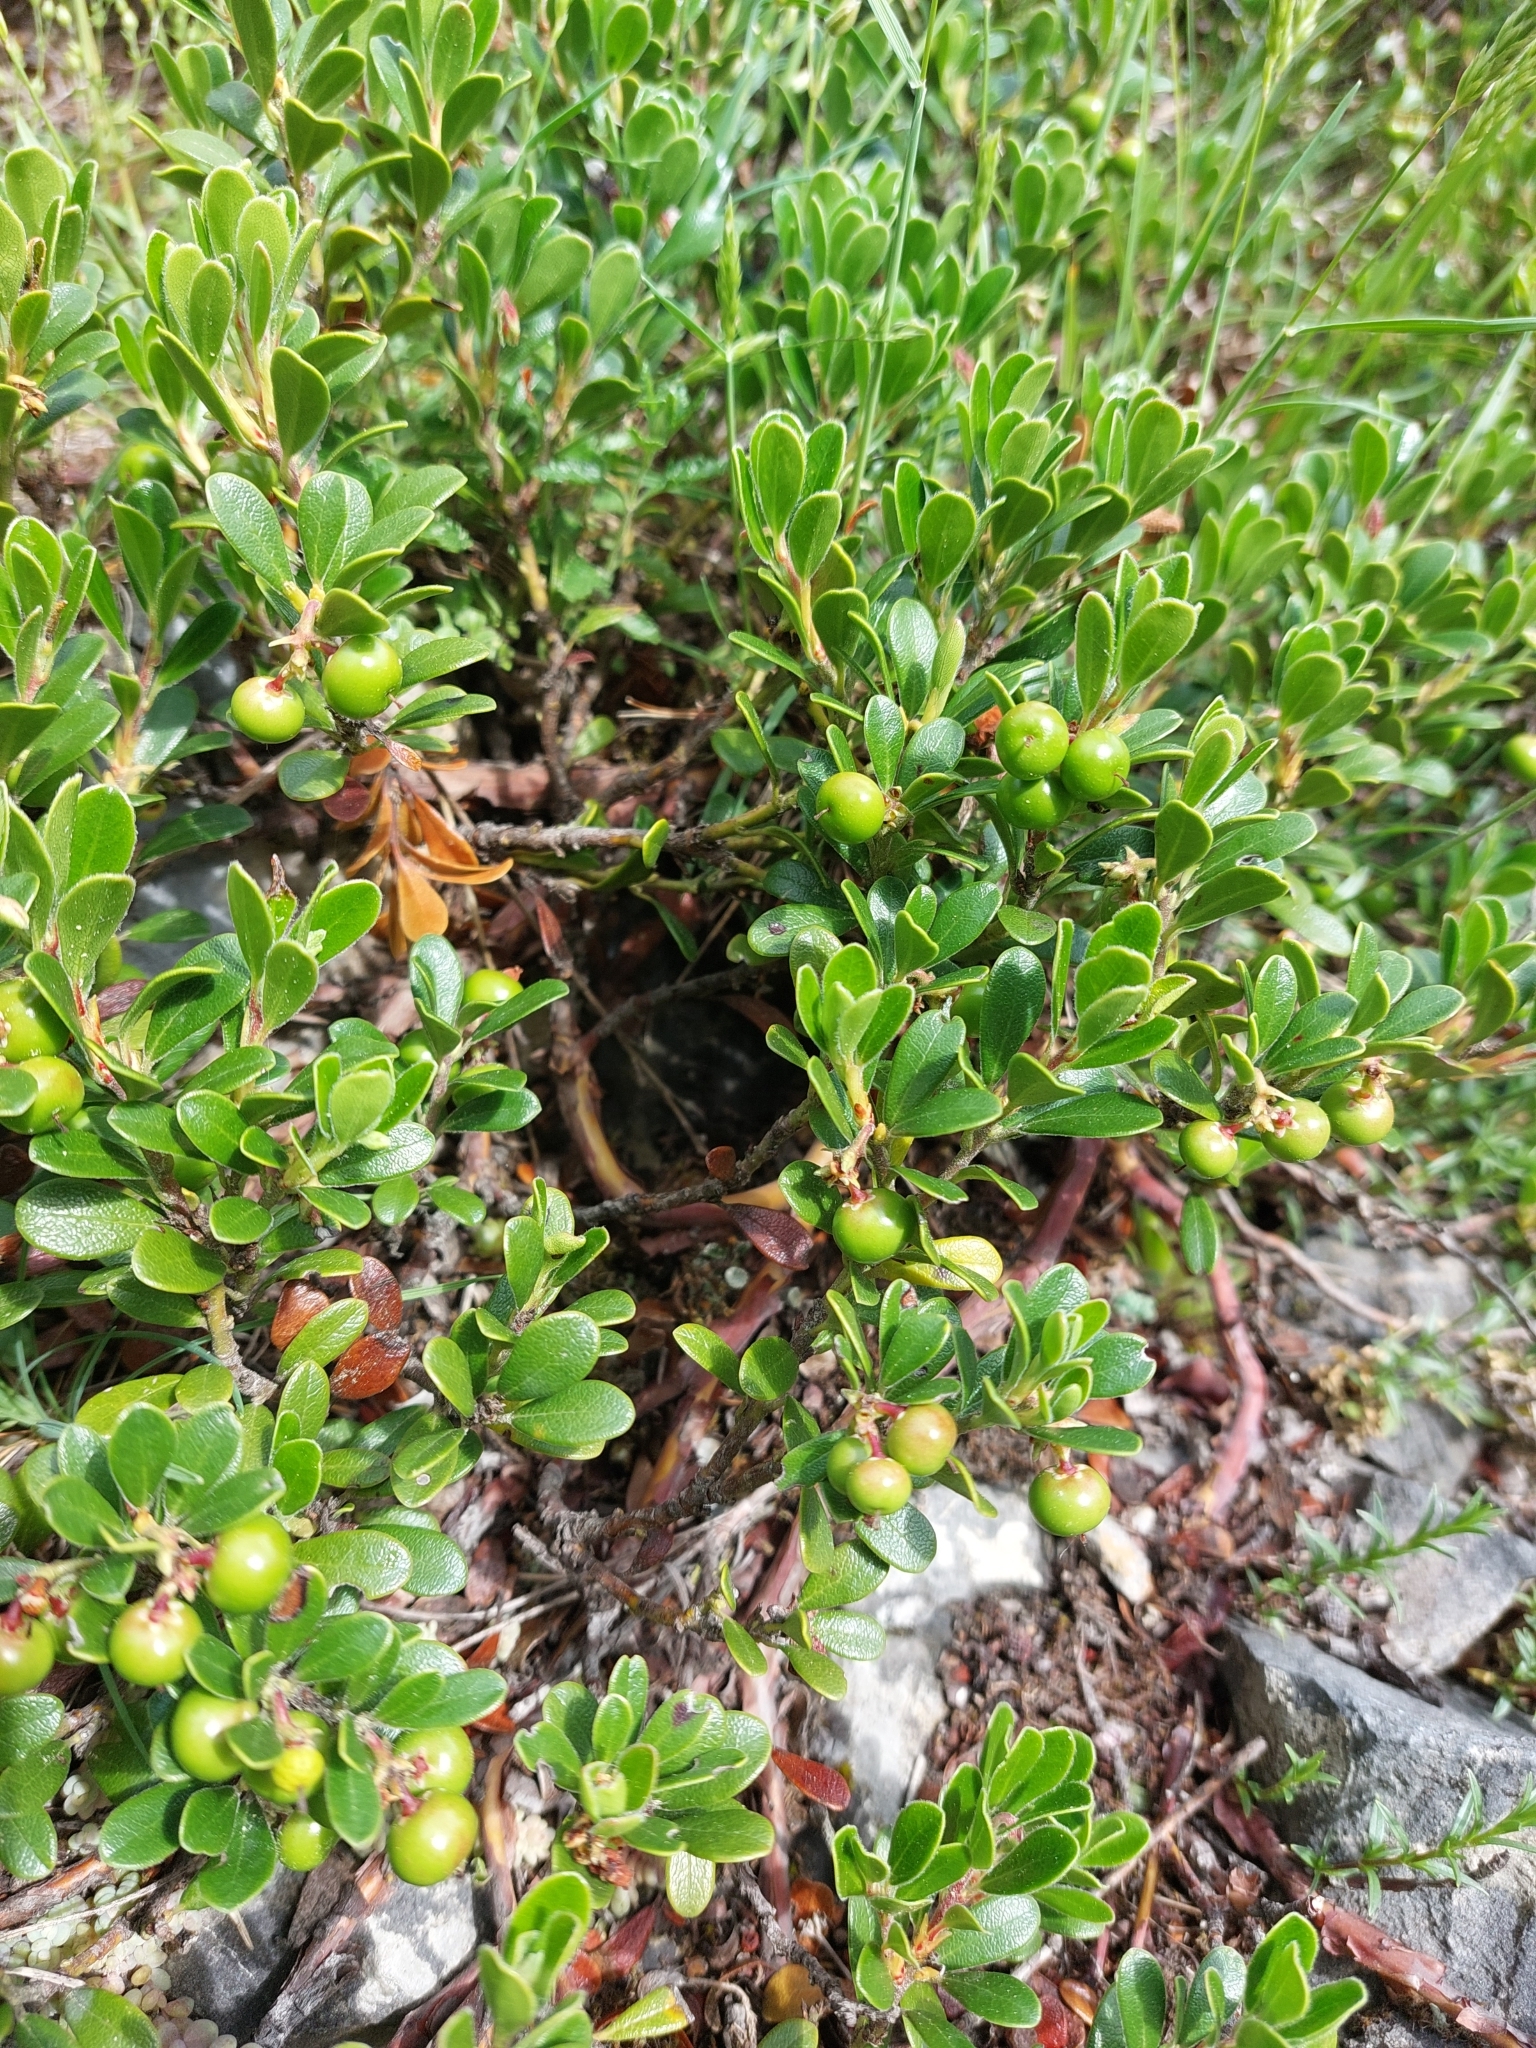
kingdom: Plantae
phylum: Tracheophyta
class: Magnoliopsida
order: Ericales
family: Ericaceae
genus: Arctostaphylos
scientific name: Arctostaphylos uva-ursi
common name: Bearberry
